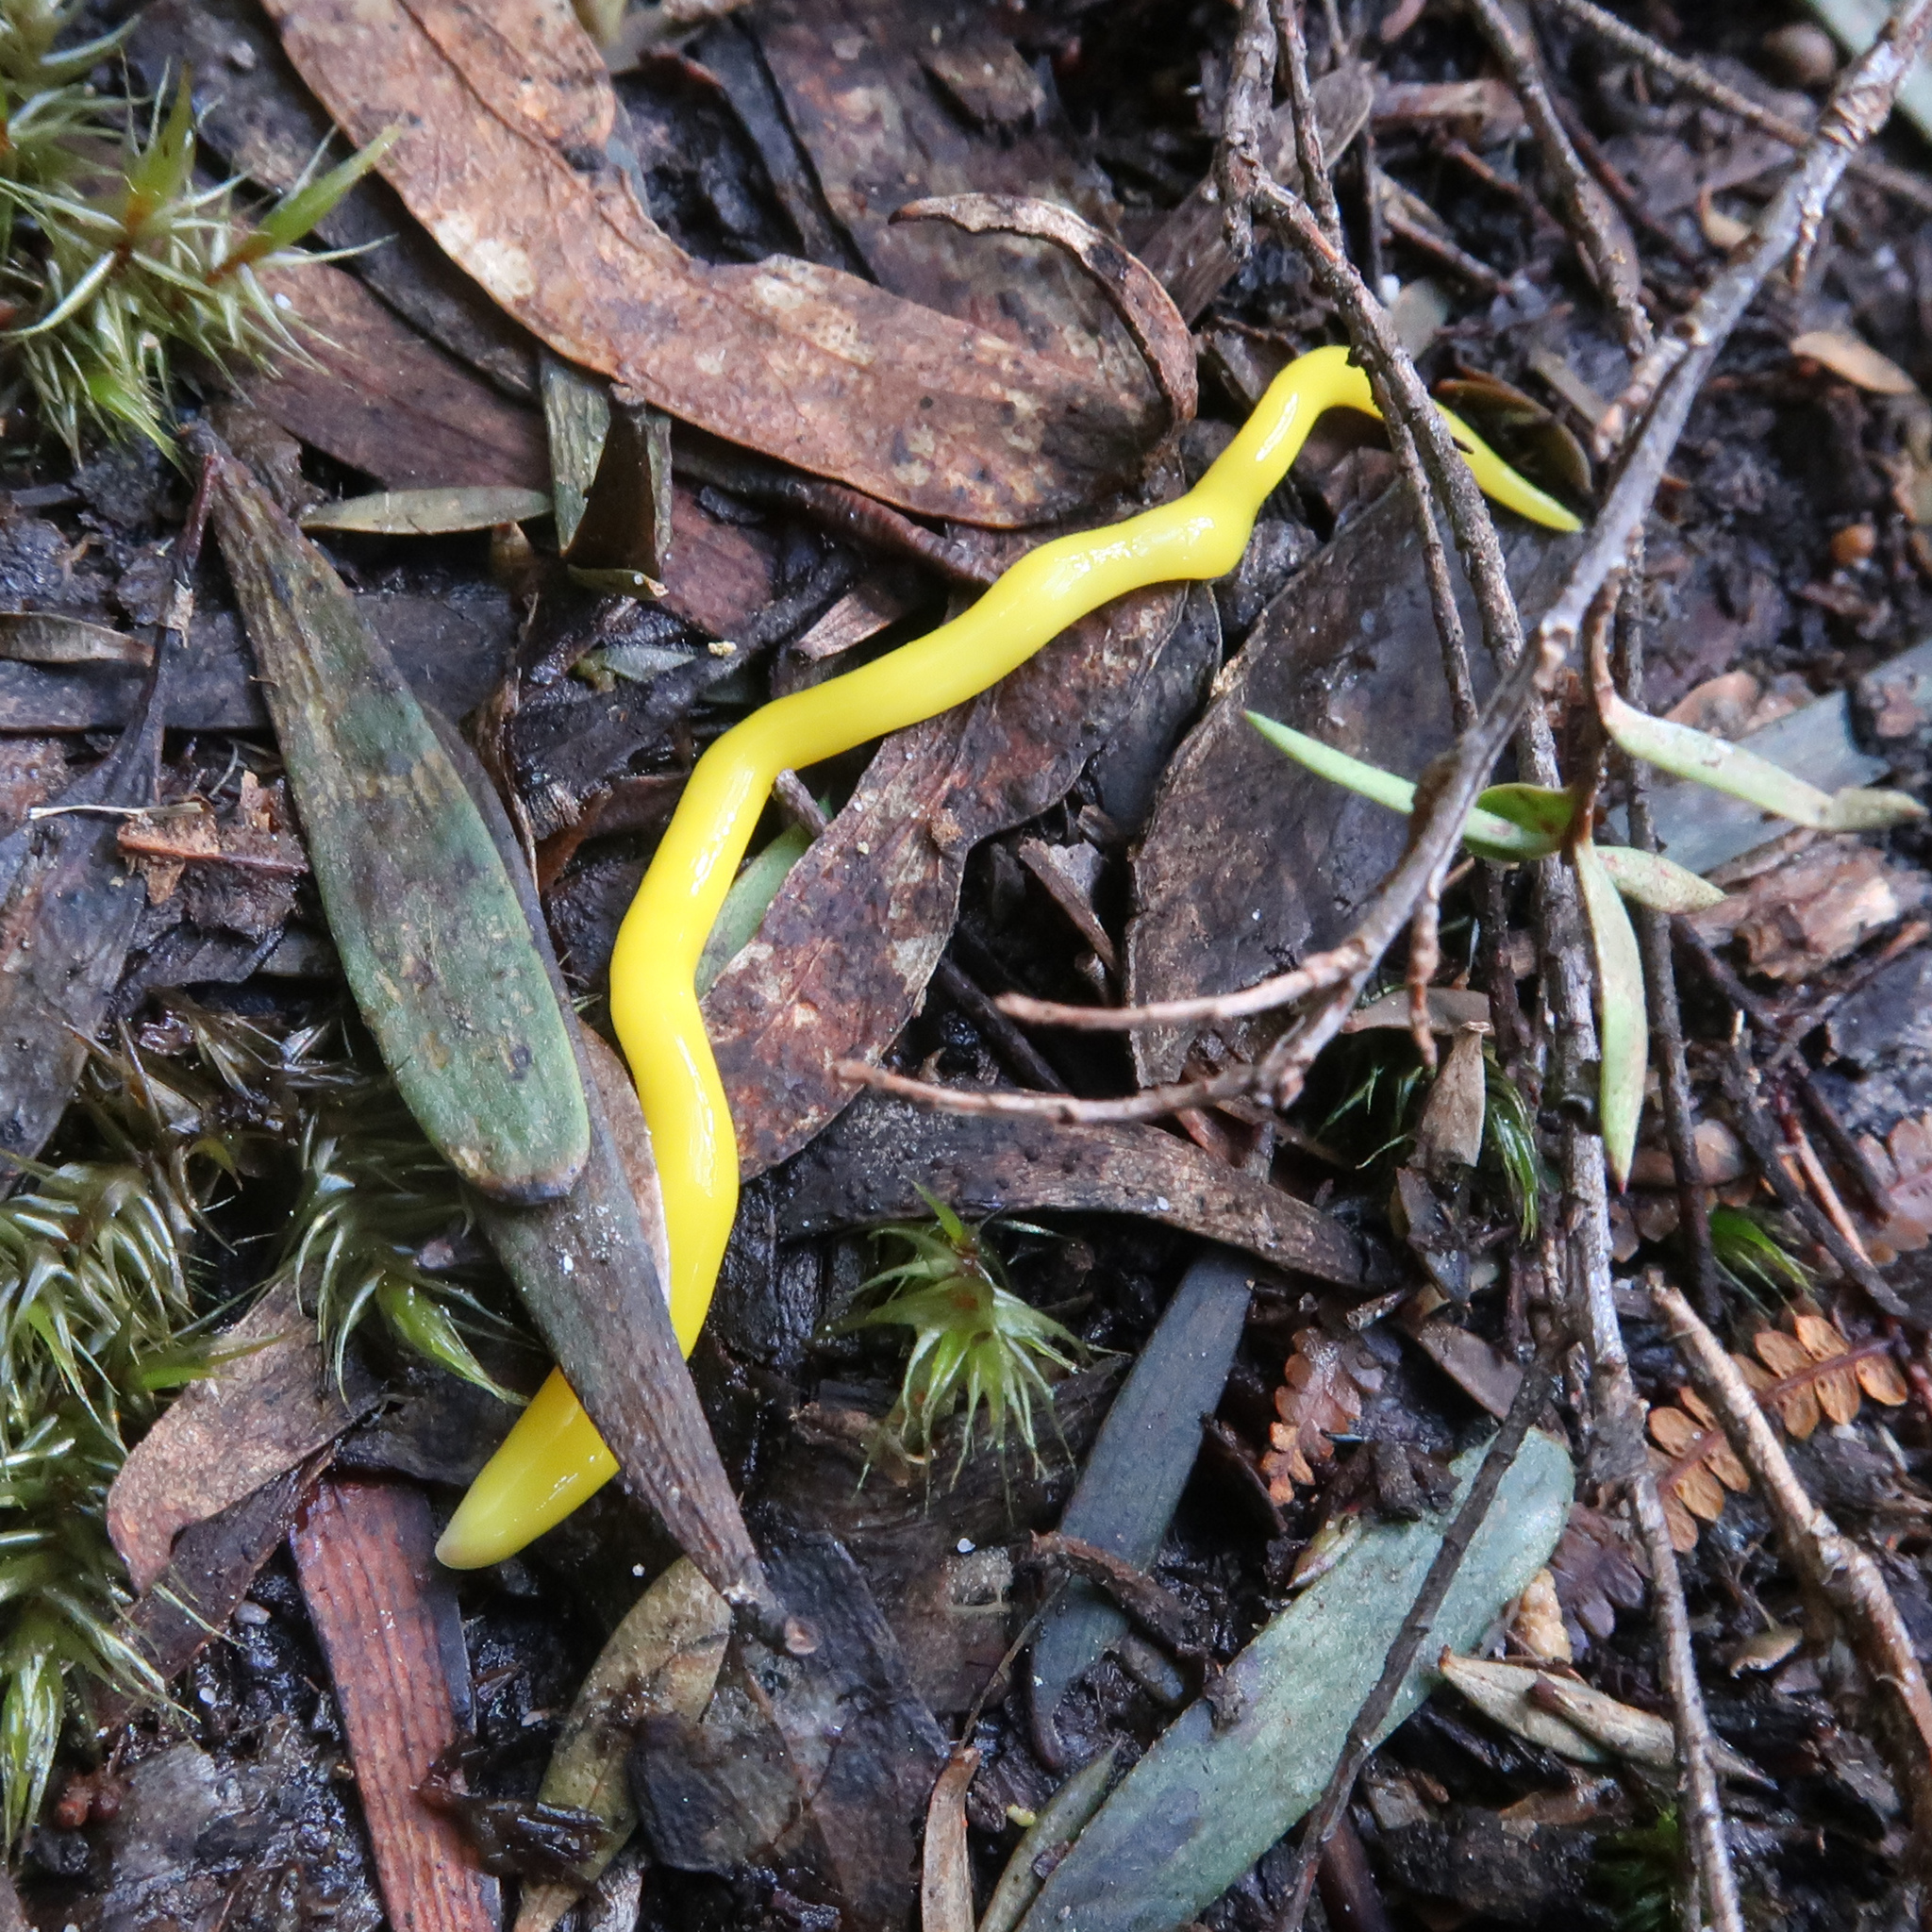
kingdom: Animalia
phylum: Platyhelminthes
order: Tricladida
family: Geoplanidae
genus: Fletchamia
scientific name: Fletchamia sugdeni
